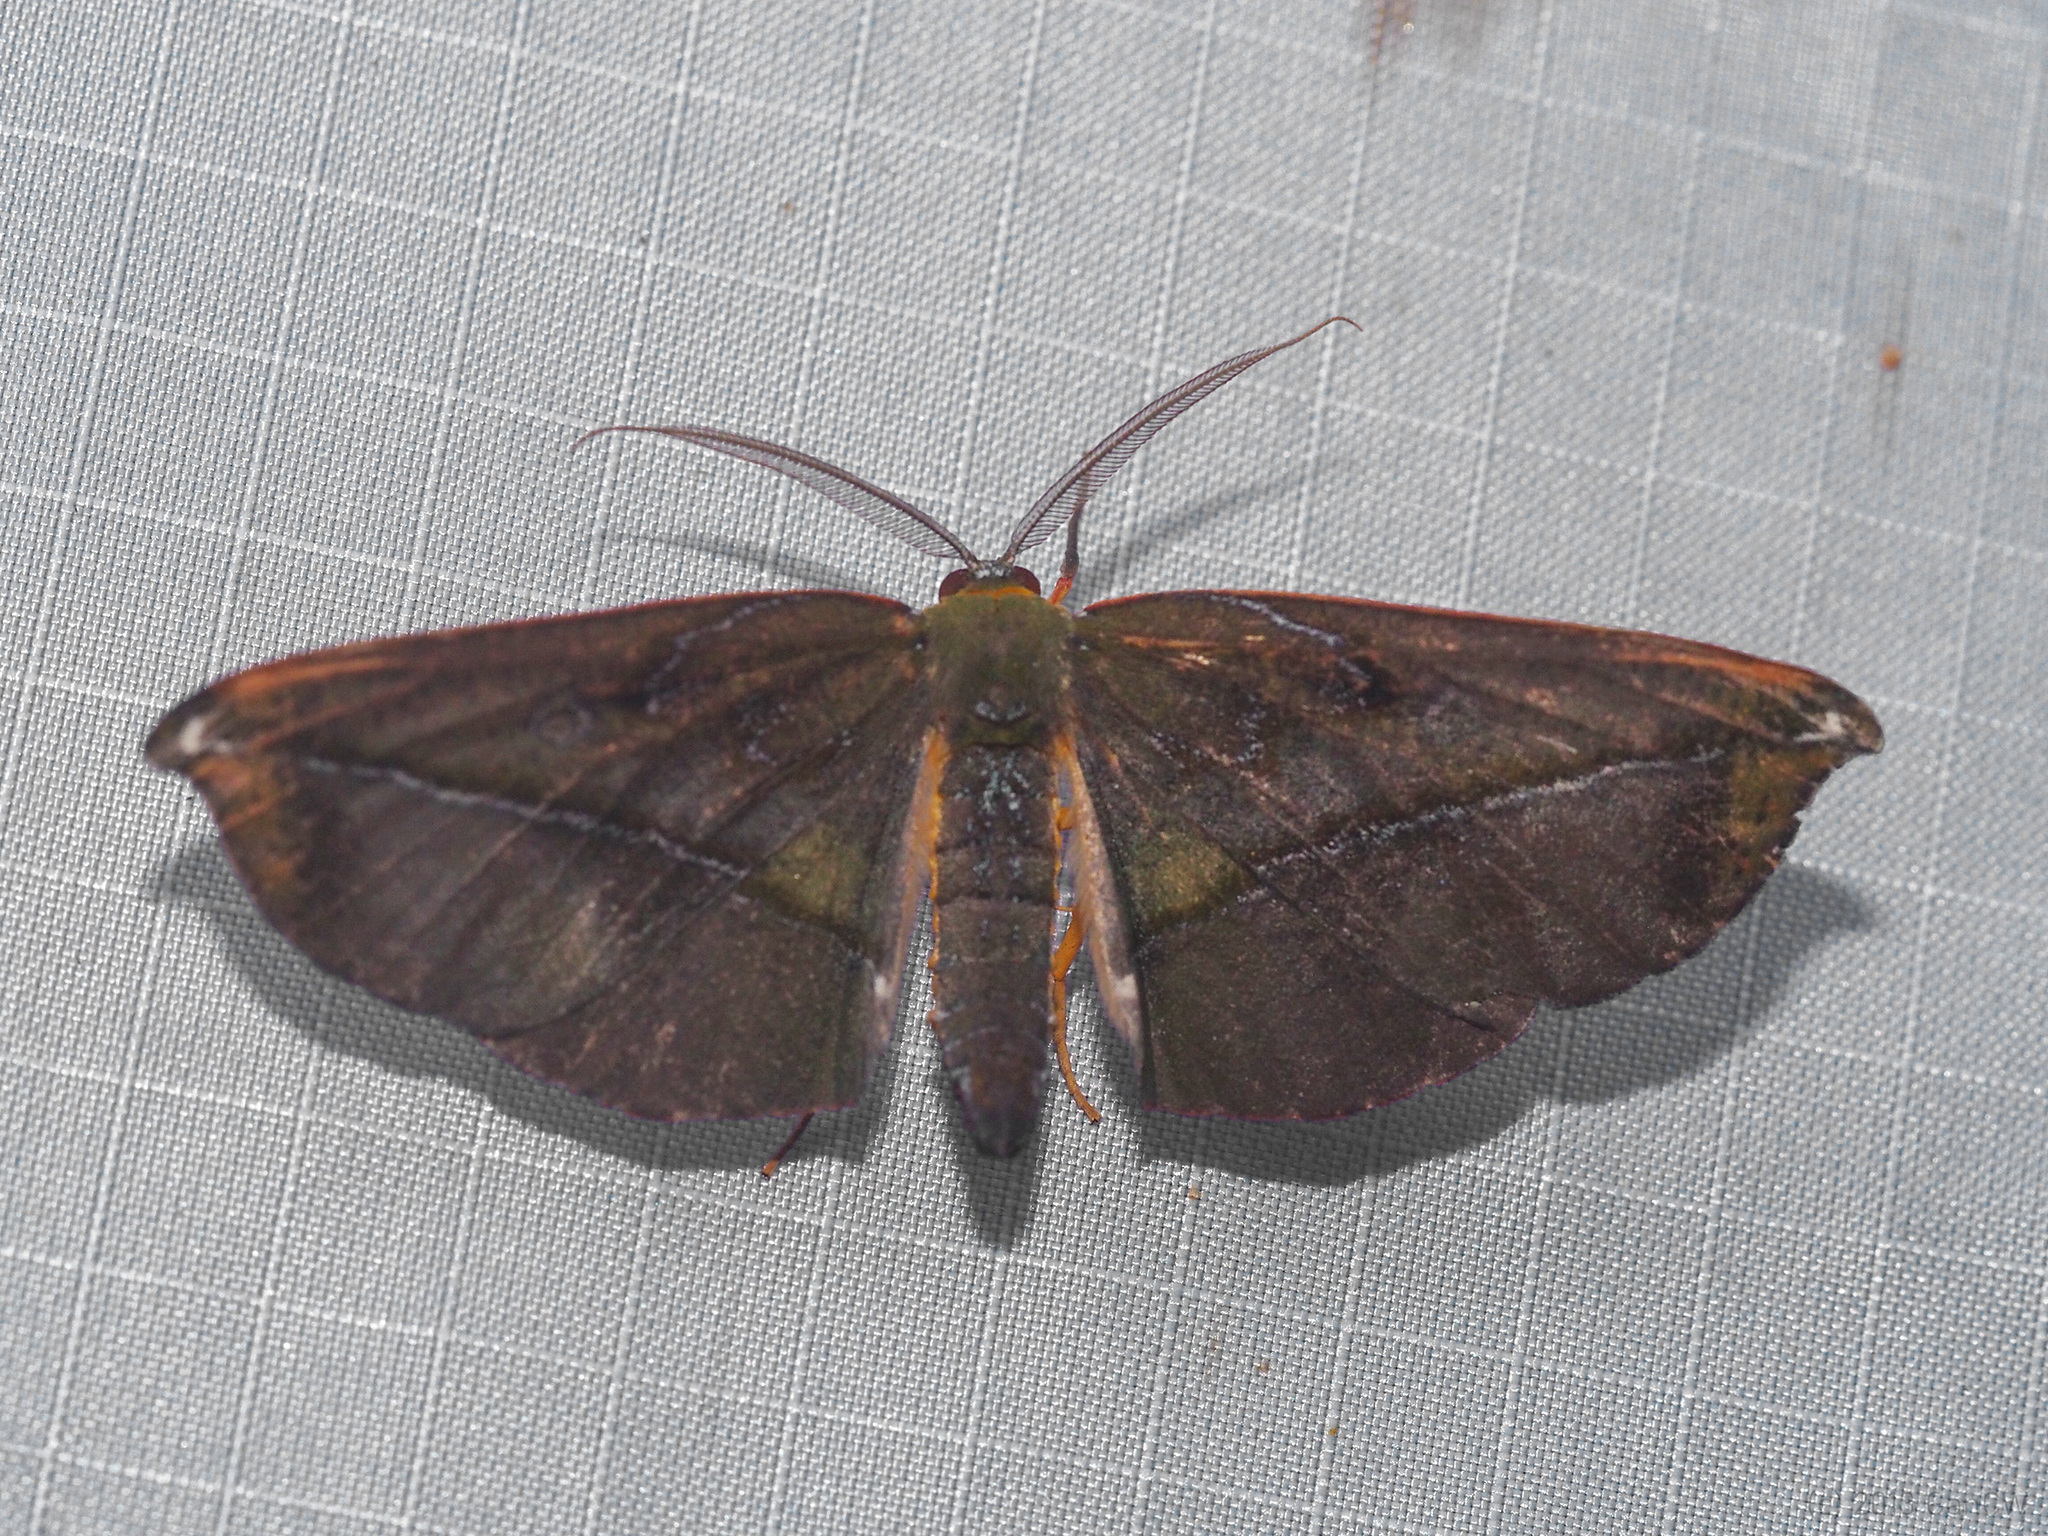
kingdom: Animalia
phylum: Arthropoda
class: Insecta
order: Lepidoptera
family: Geometridae
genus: Omiza
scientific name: Omiza lycoraria
